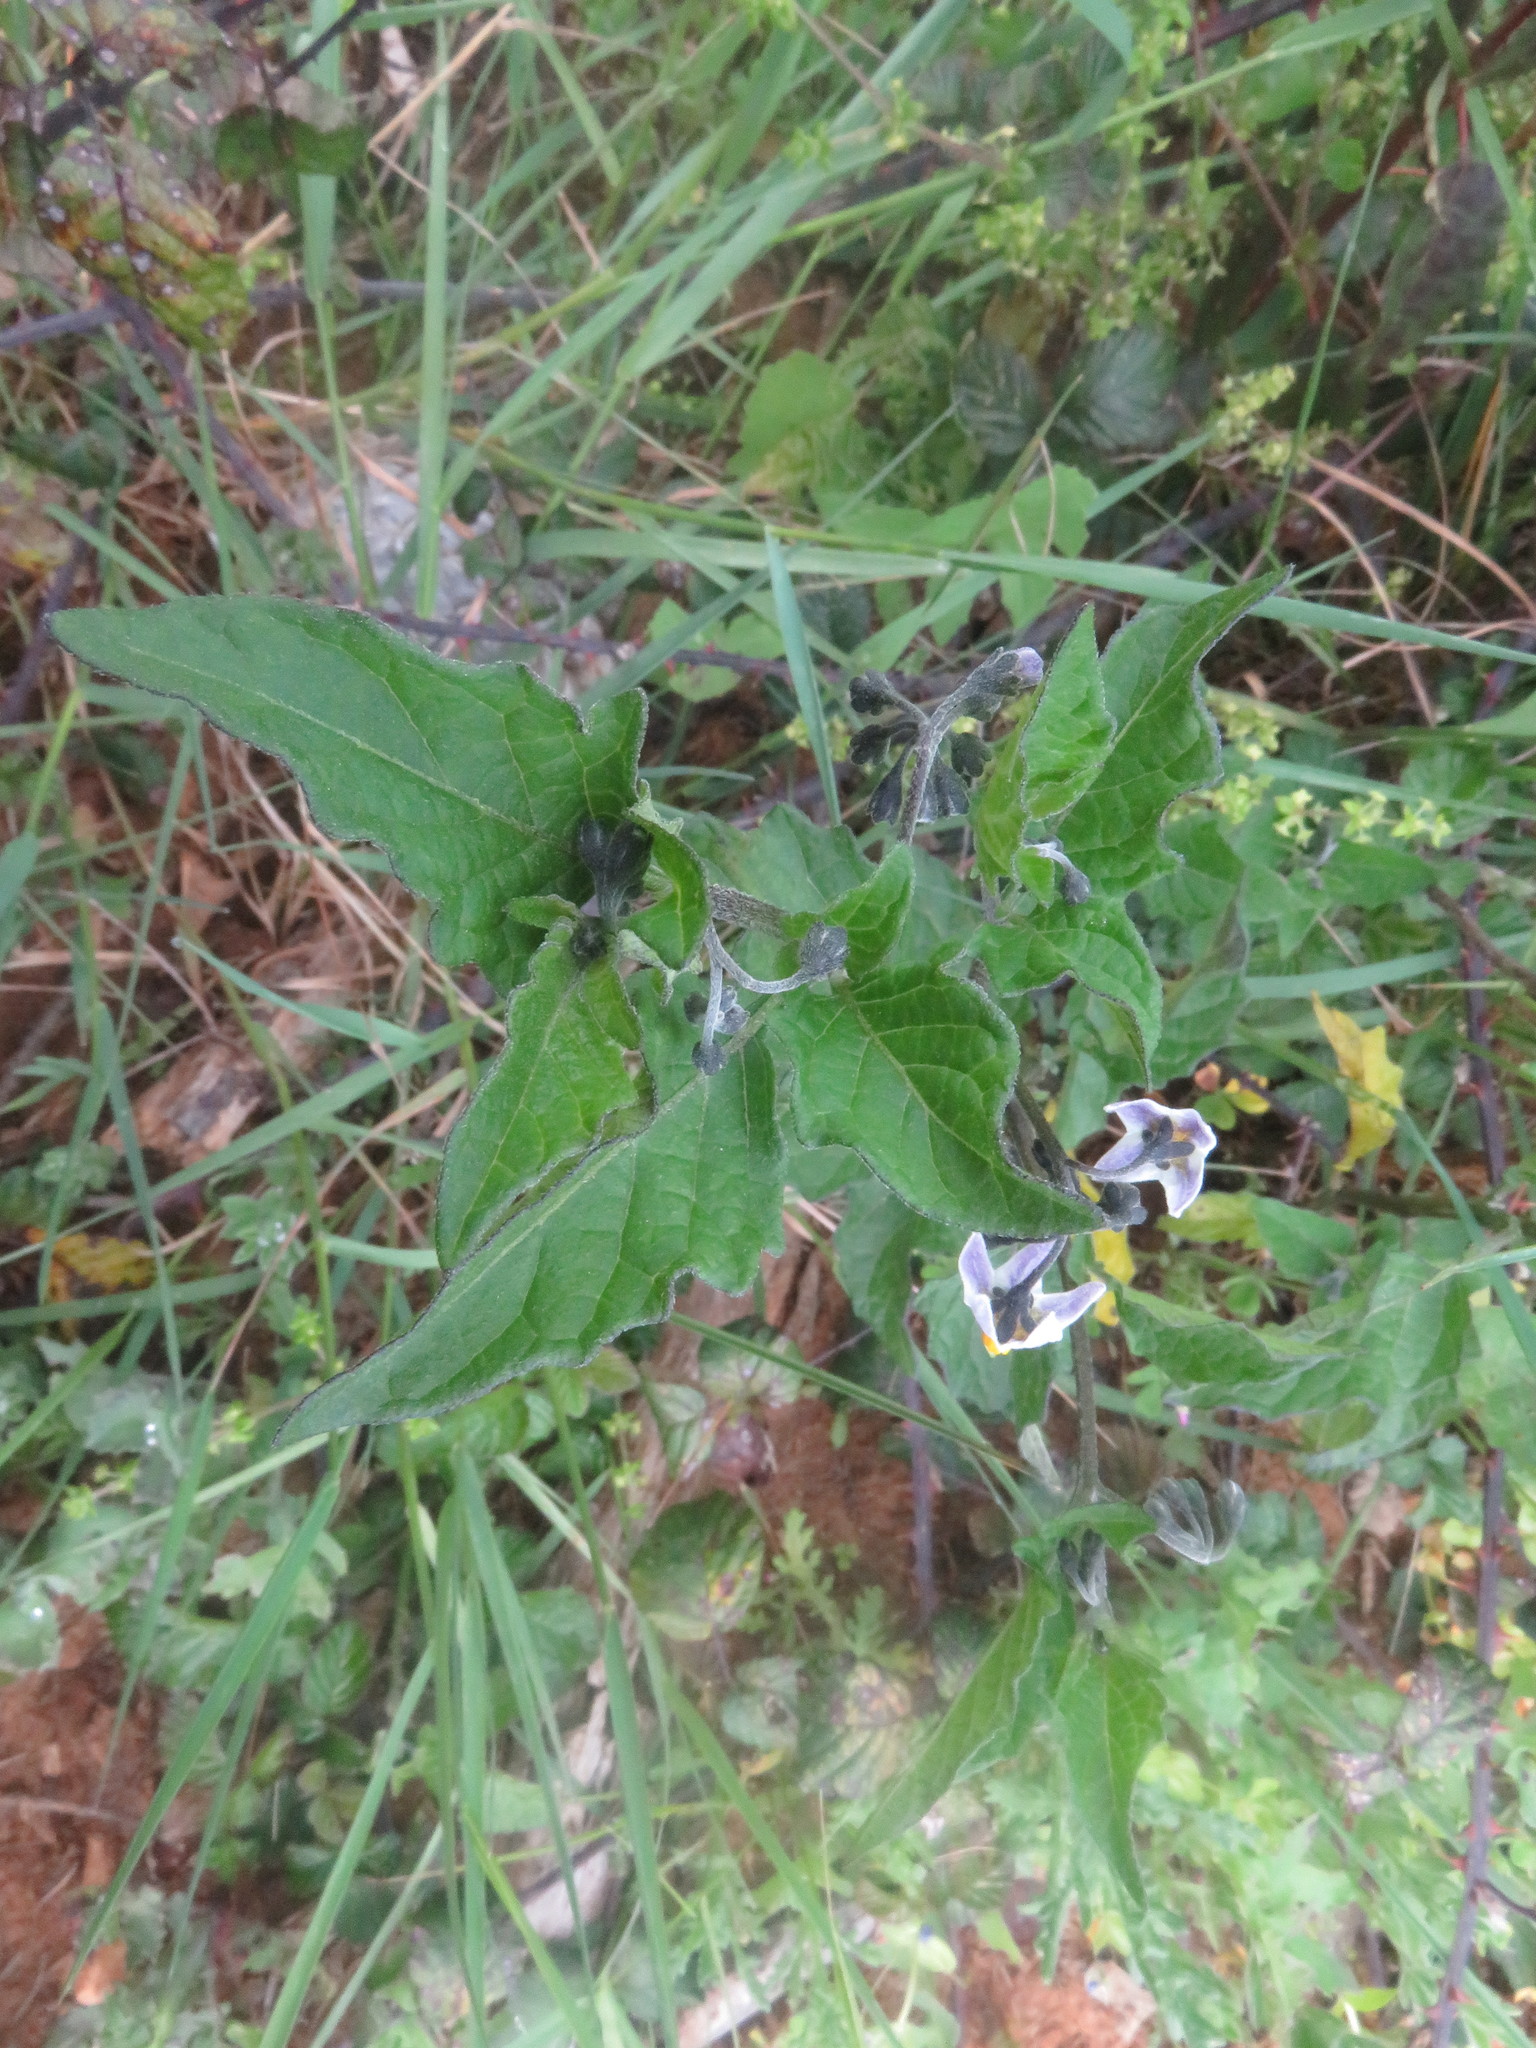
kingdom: Plantae
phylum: Tracheophyta
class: Magnoliopsida
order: Solanales
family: Solanaceae
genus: Solanum
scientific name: Solanum furcatum
